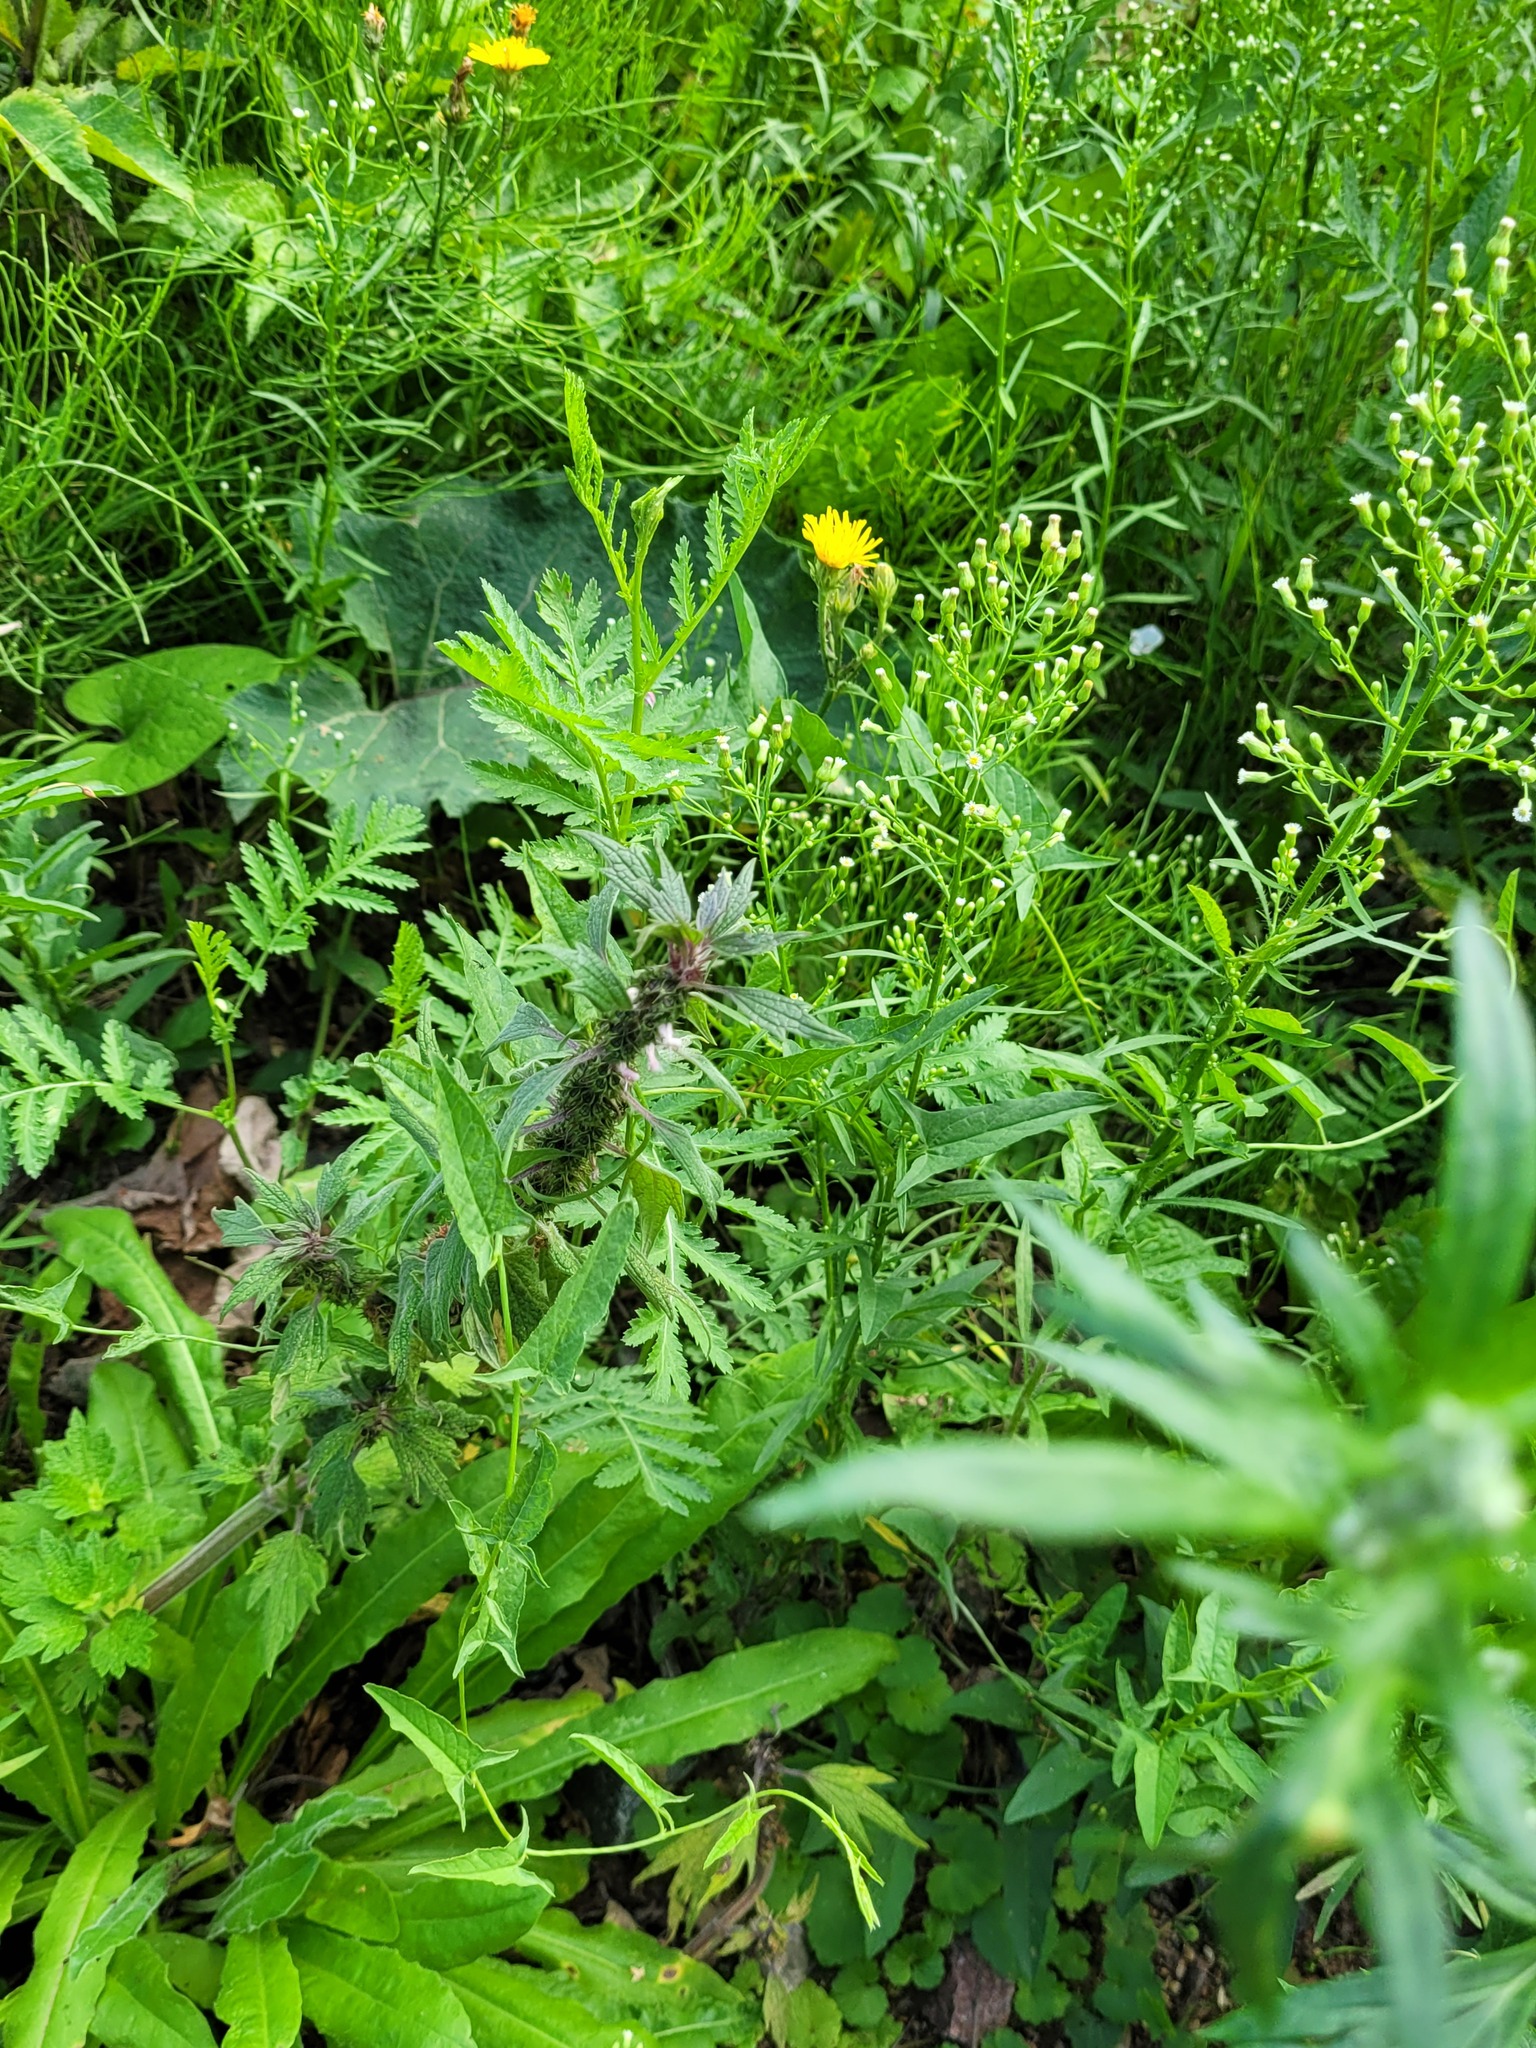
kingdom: Plantae
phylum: Tracheophyta
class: Magnoliopsida
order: Lamiales
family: Lamiaceae
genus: Leonurus
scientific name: Leonurus quinquelobatus
